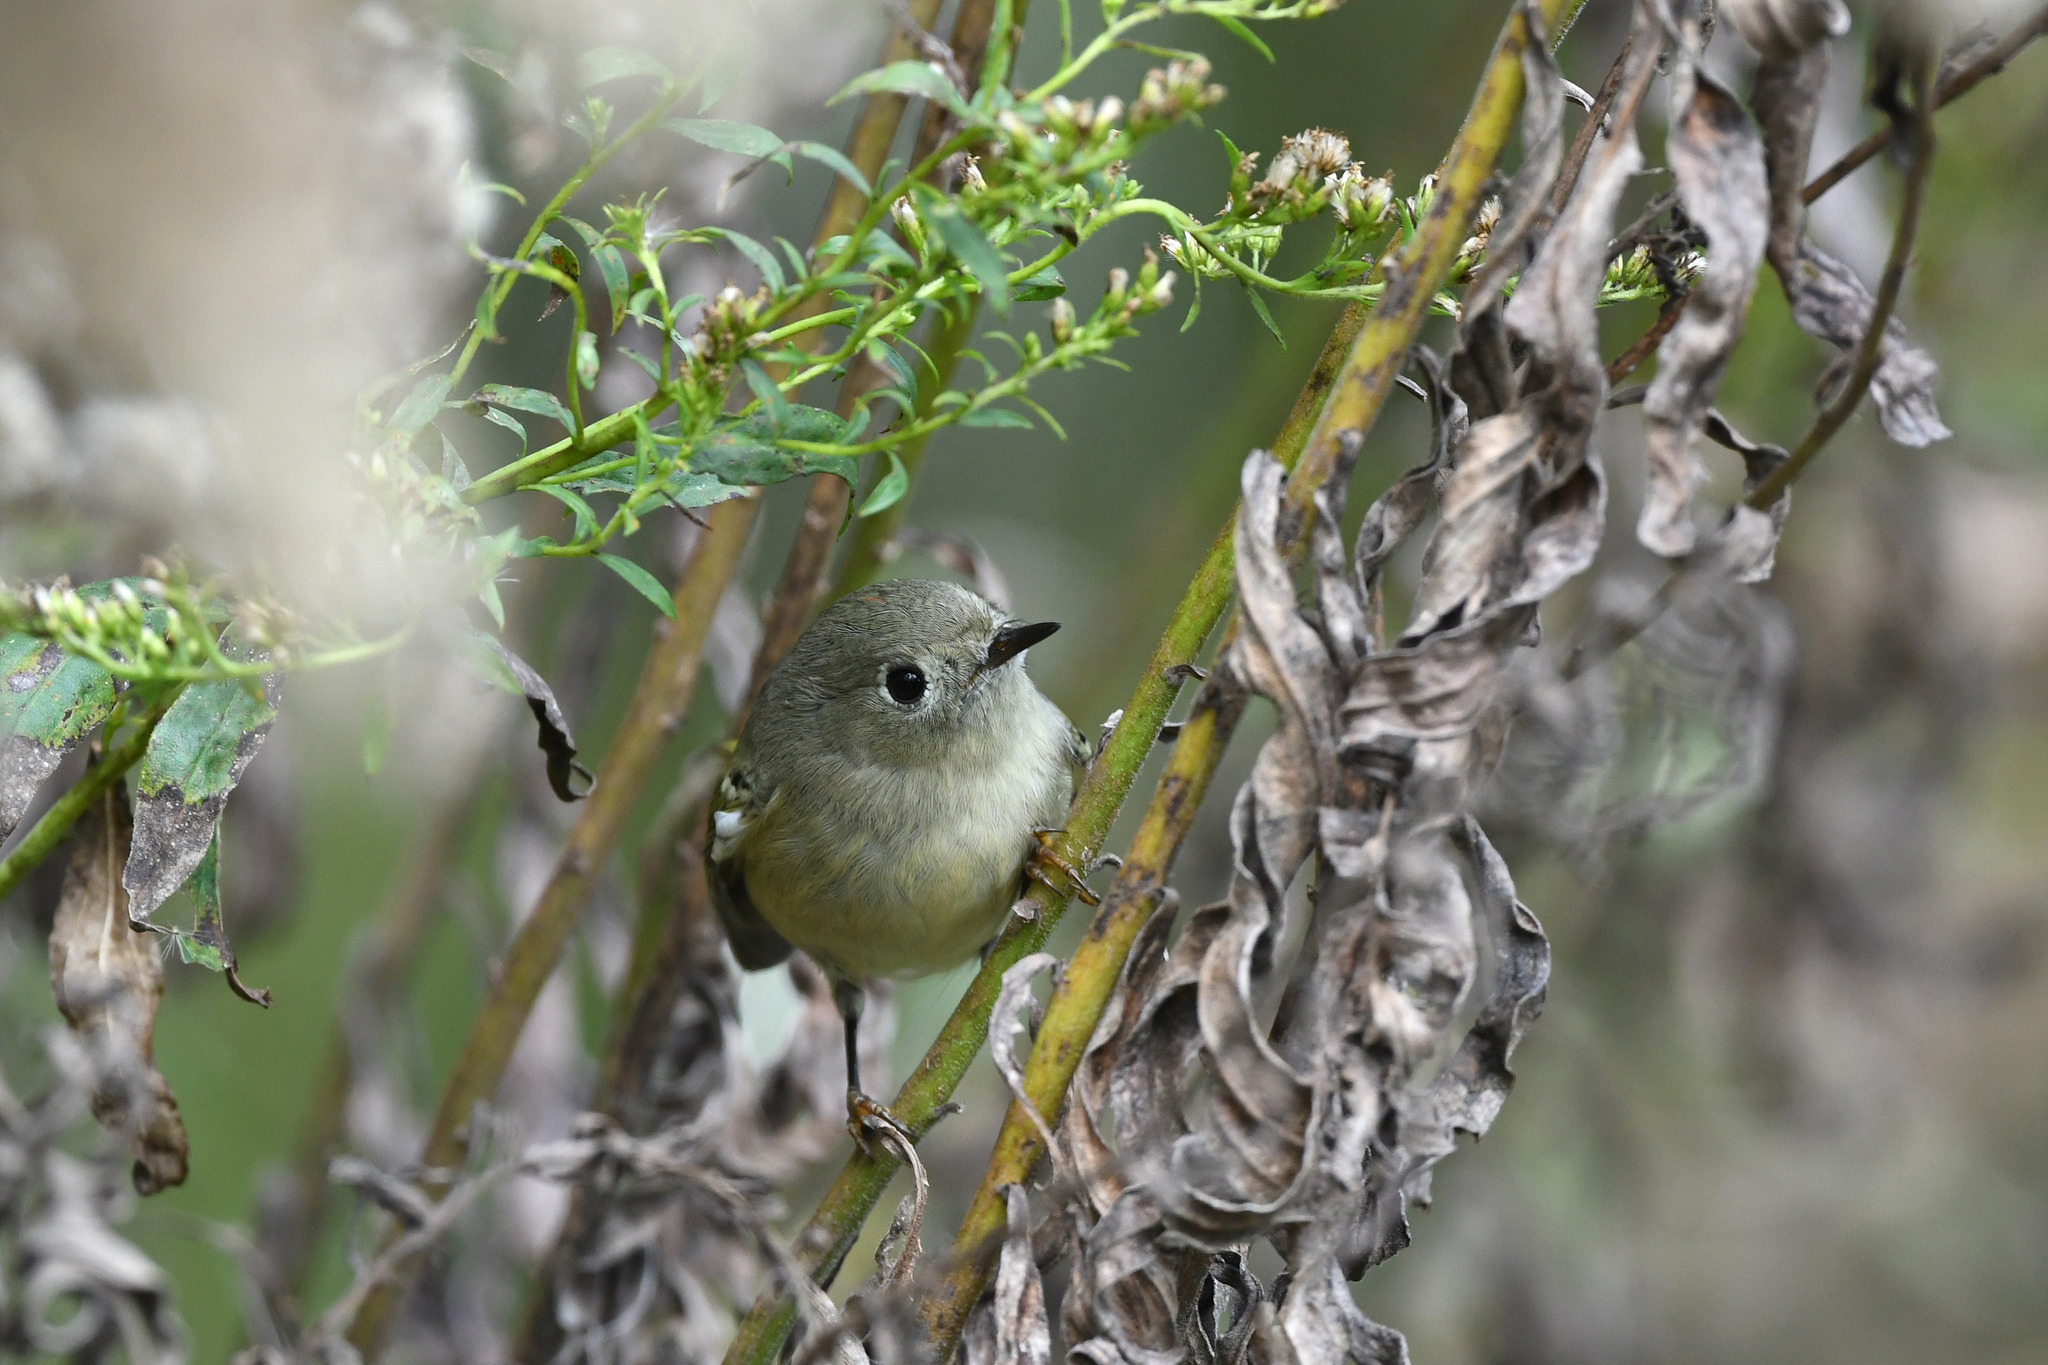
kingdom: Animalia
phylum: Chordata
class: Aves
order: Passeriformes
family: Regulidae
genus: Regulus
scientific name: Regulus calendula
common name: Ruby-crowned kinglet
